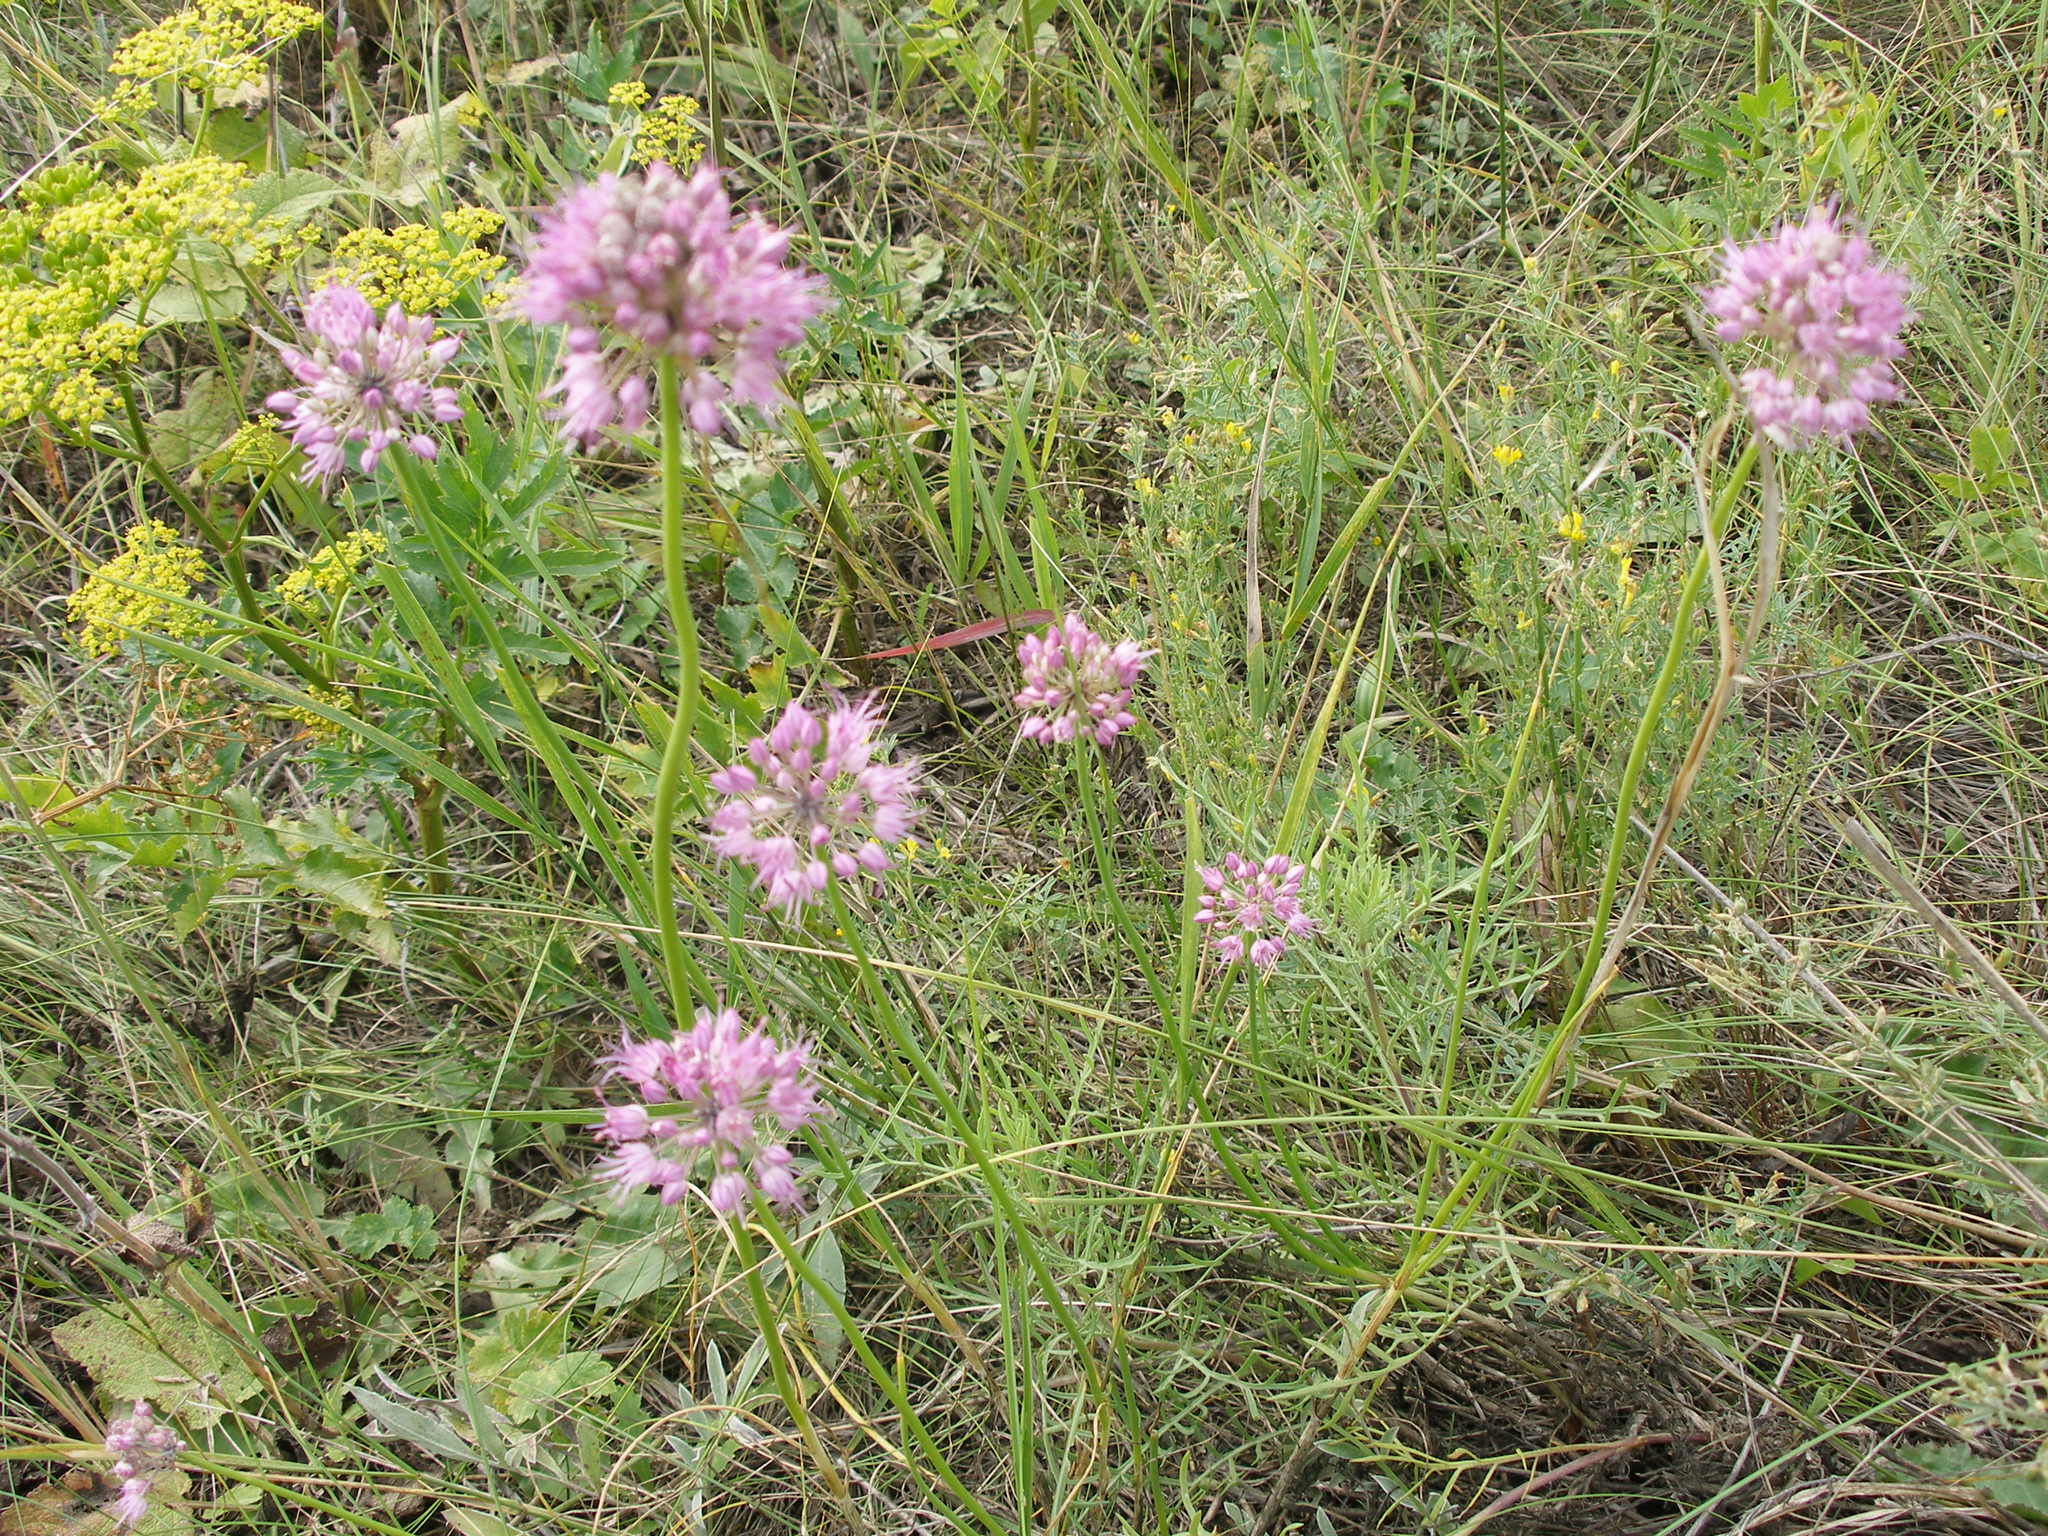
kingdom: Plantae
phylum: Tracheophyta
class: Liliopsida
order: Asparagales
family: Amaryllidaceae
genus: Allium
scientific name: Allium cretaceum
